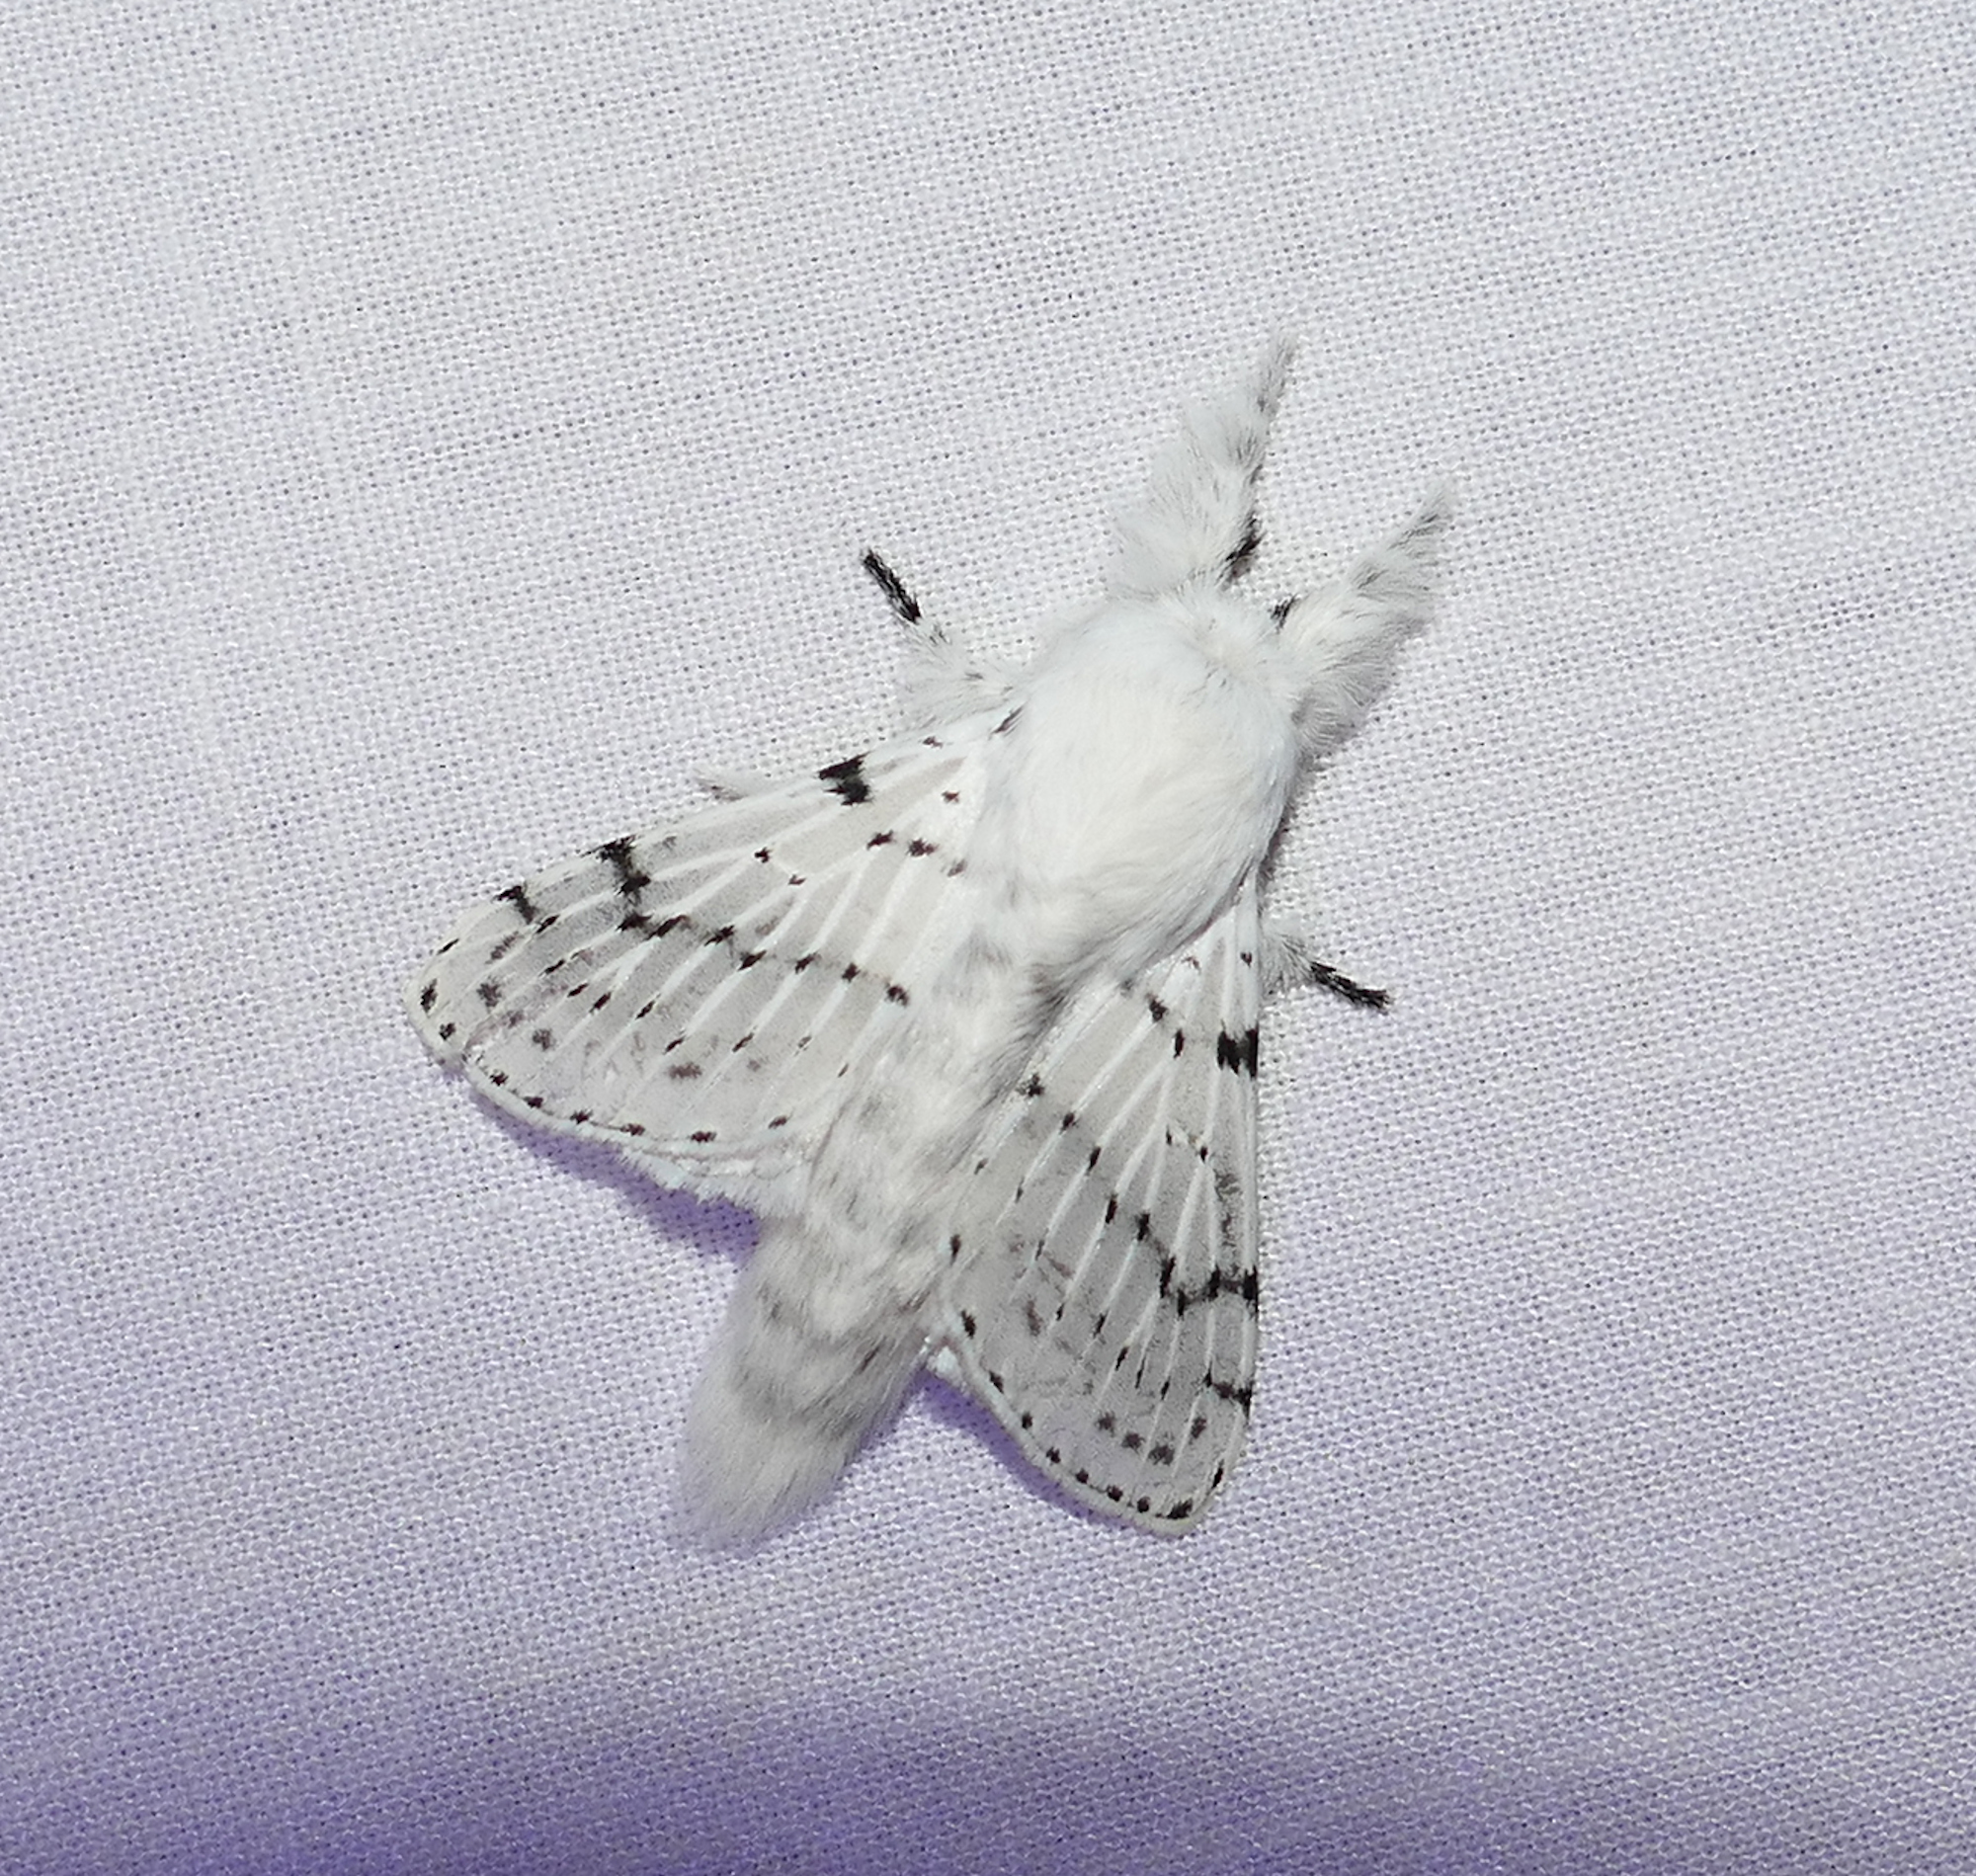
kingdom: Animalia
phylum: Arthropoda
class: Insecta
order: Lepidoptera
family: Lasiocampidae
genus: Artace
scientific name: Artace cribrarius
